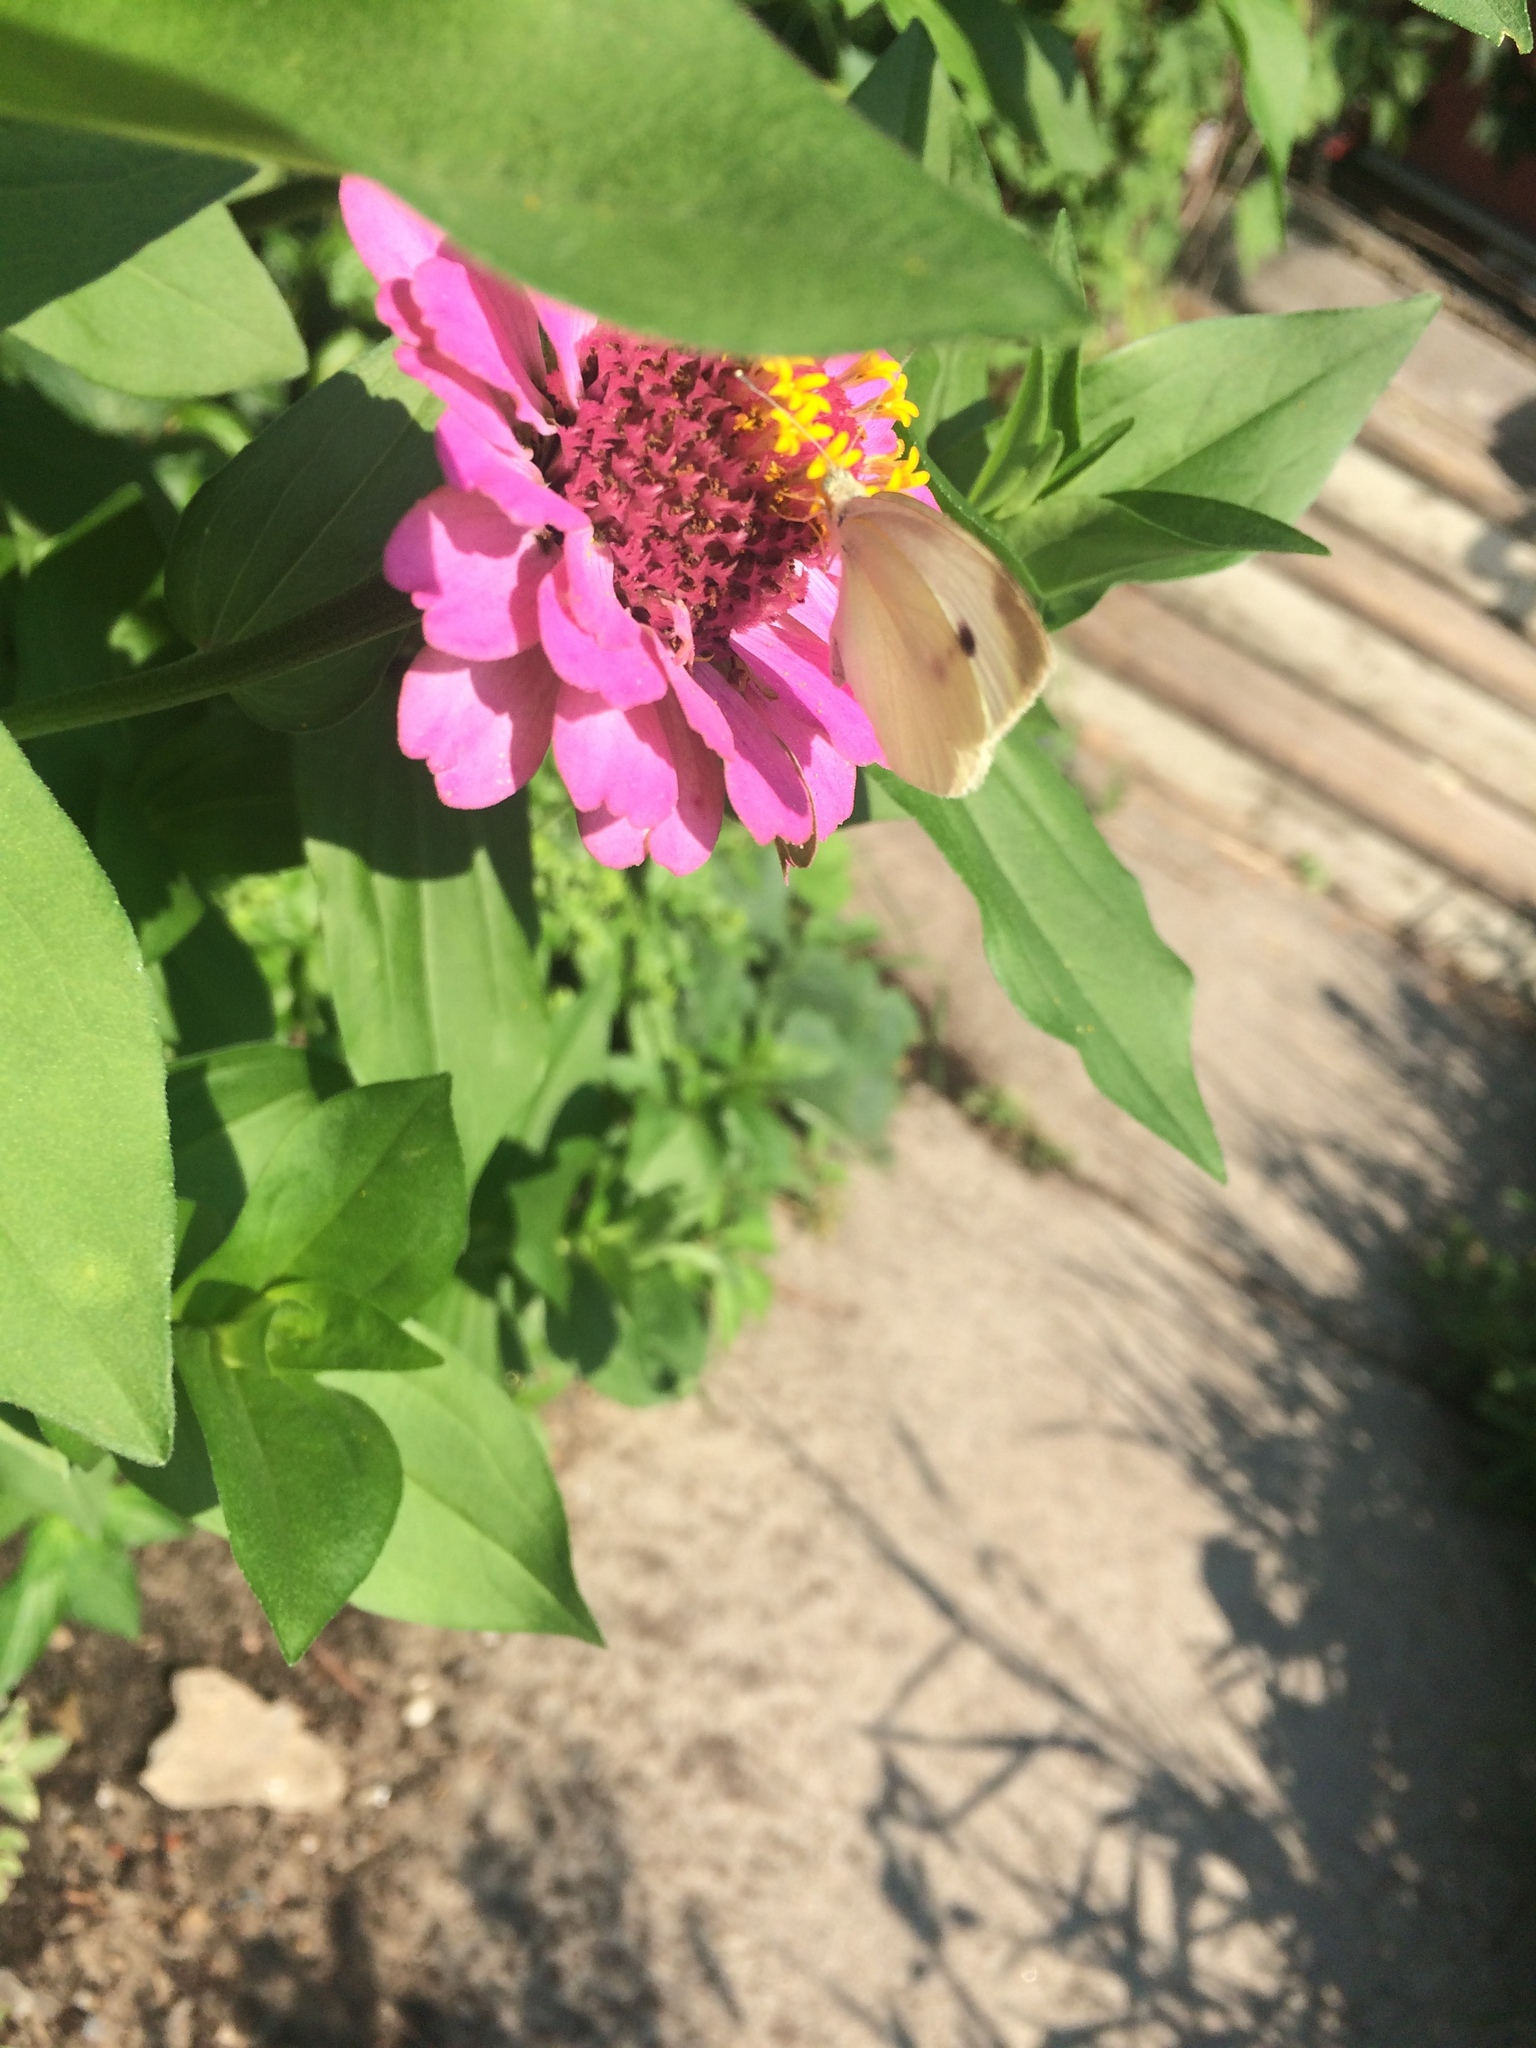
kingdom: Animalia
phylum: Arthropoda
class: Insecta
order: Lepidoptera
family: Pieridae
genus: Pieris
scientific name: Pieris rapae
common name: Small white
